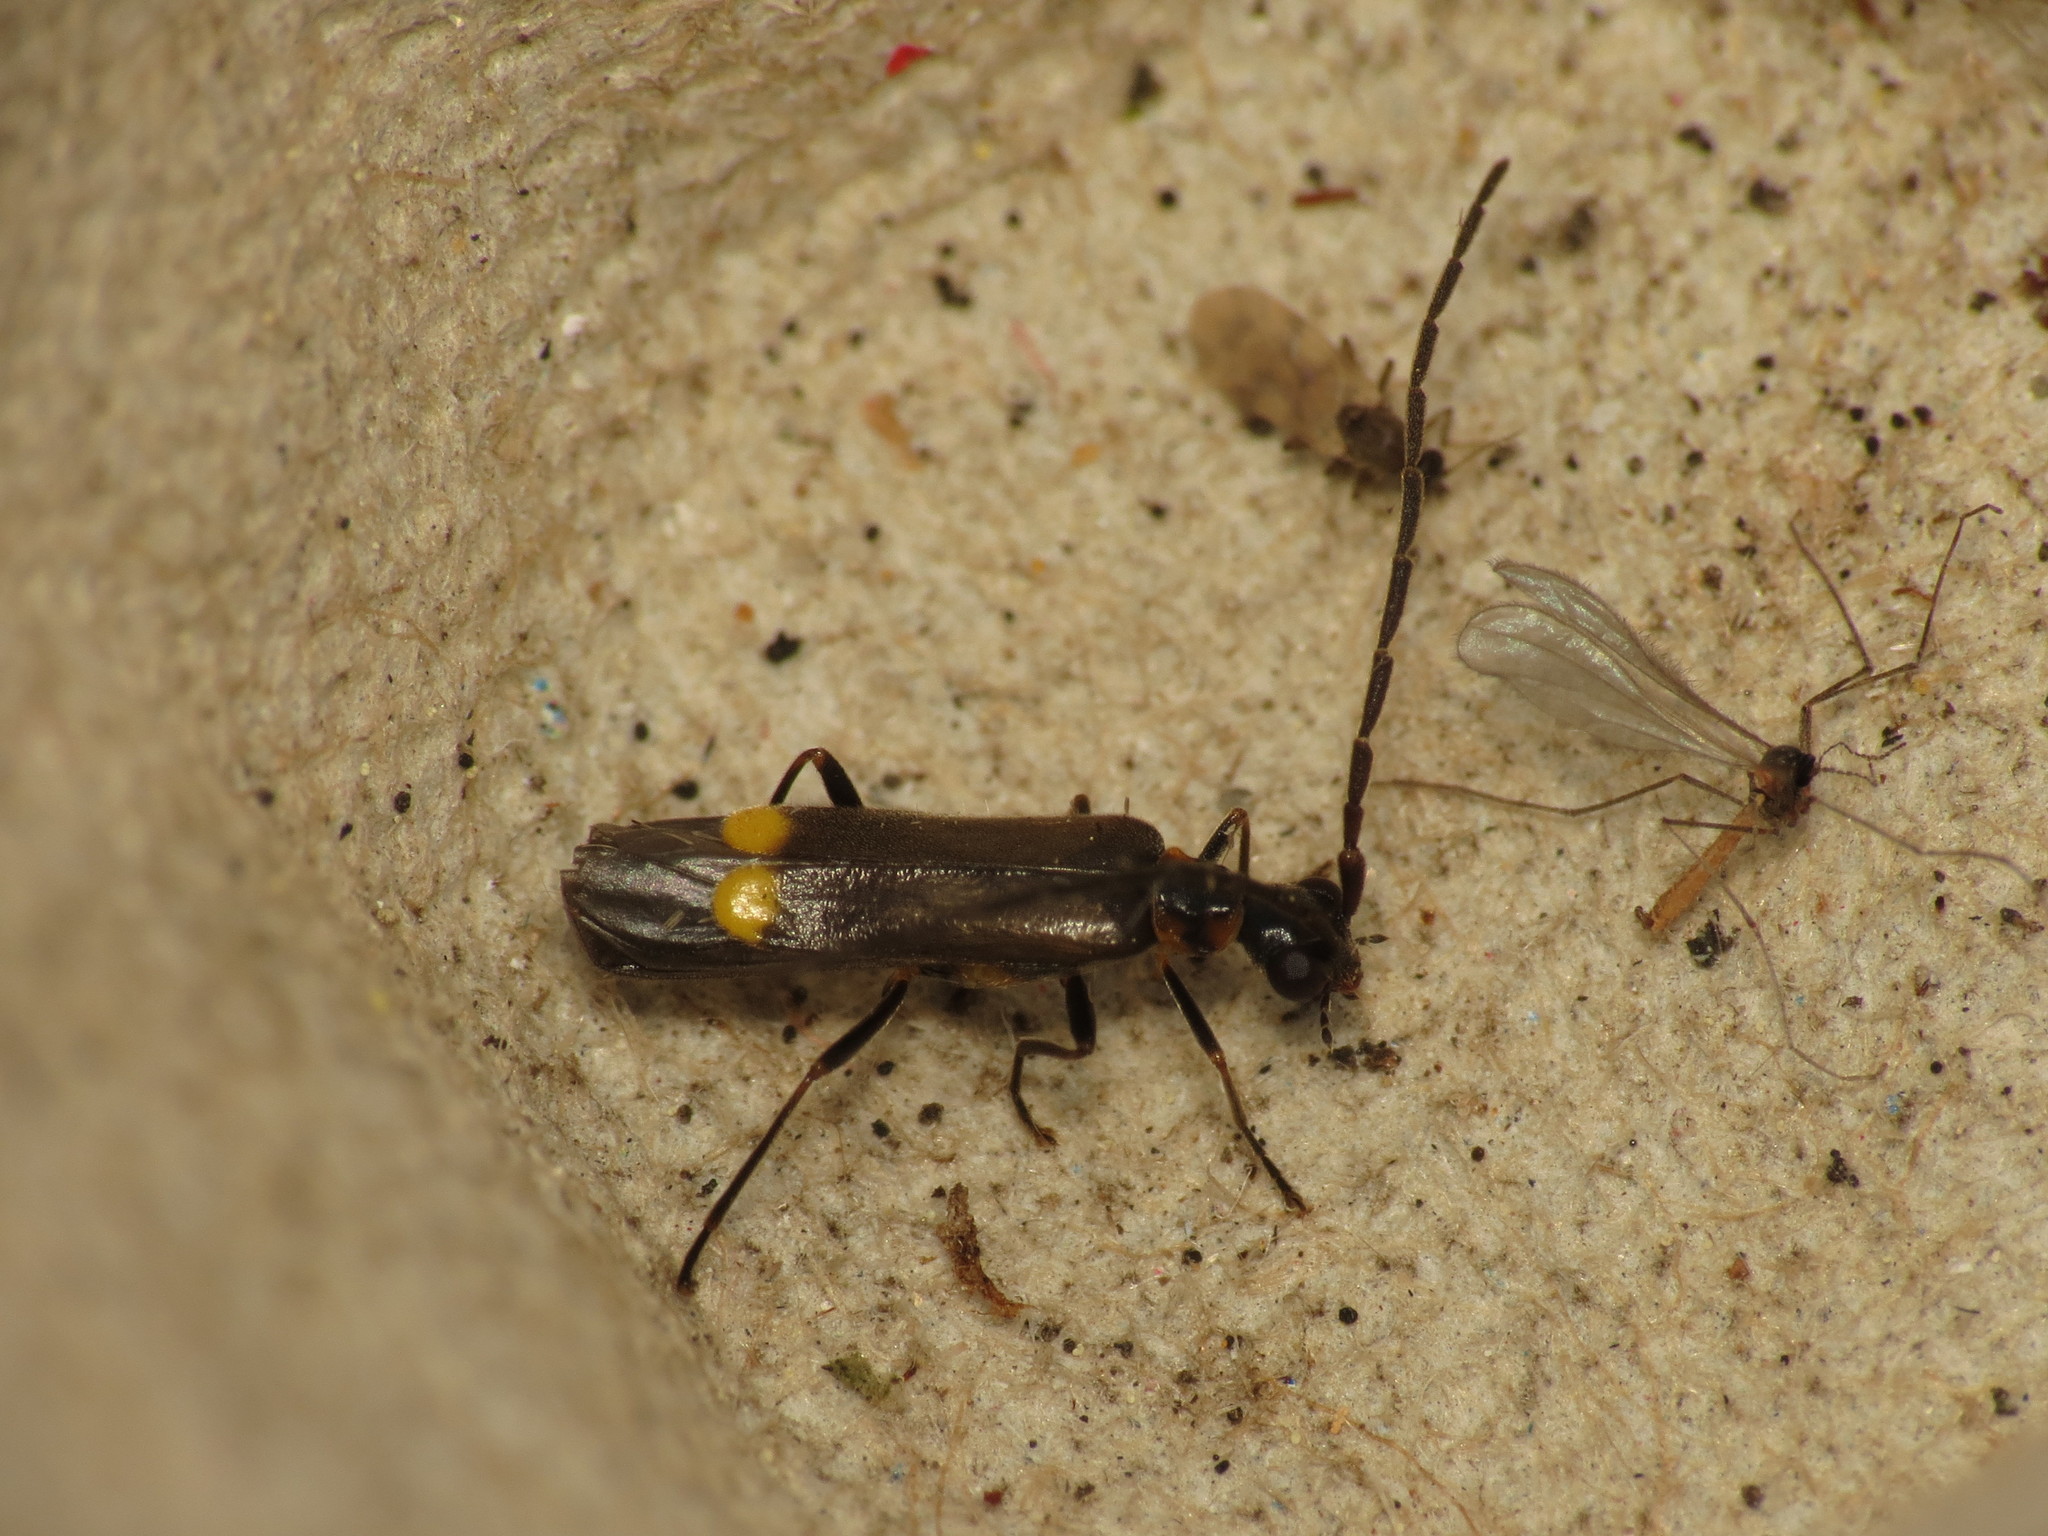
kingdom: Animalia
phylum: Arthropoda
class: Insecta
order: Coleoptera
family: Cantharidae
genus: Malthodes
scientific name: Malthodes marginatus
